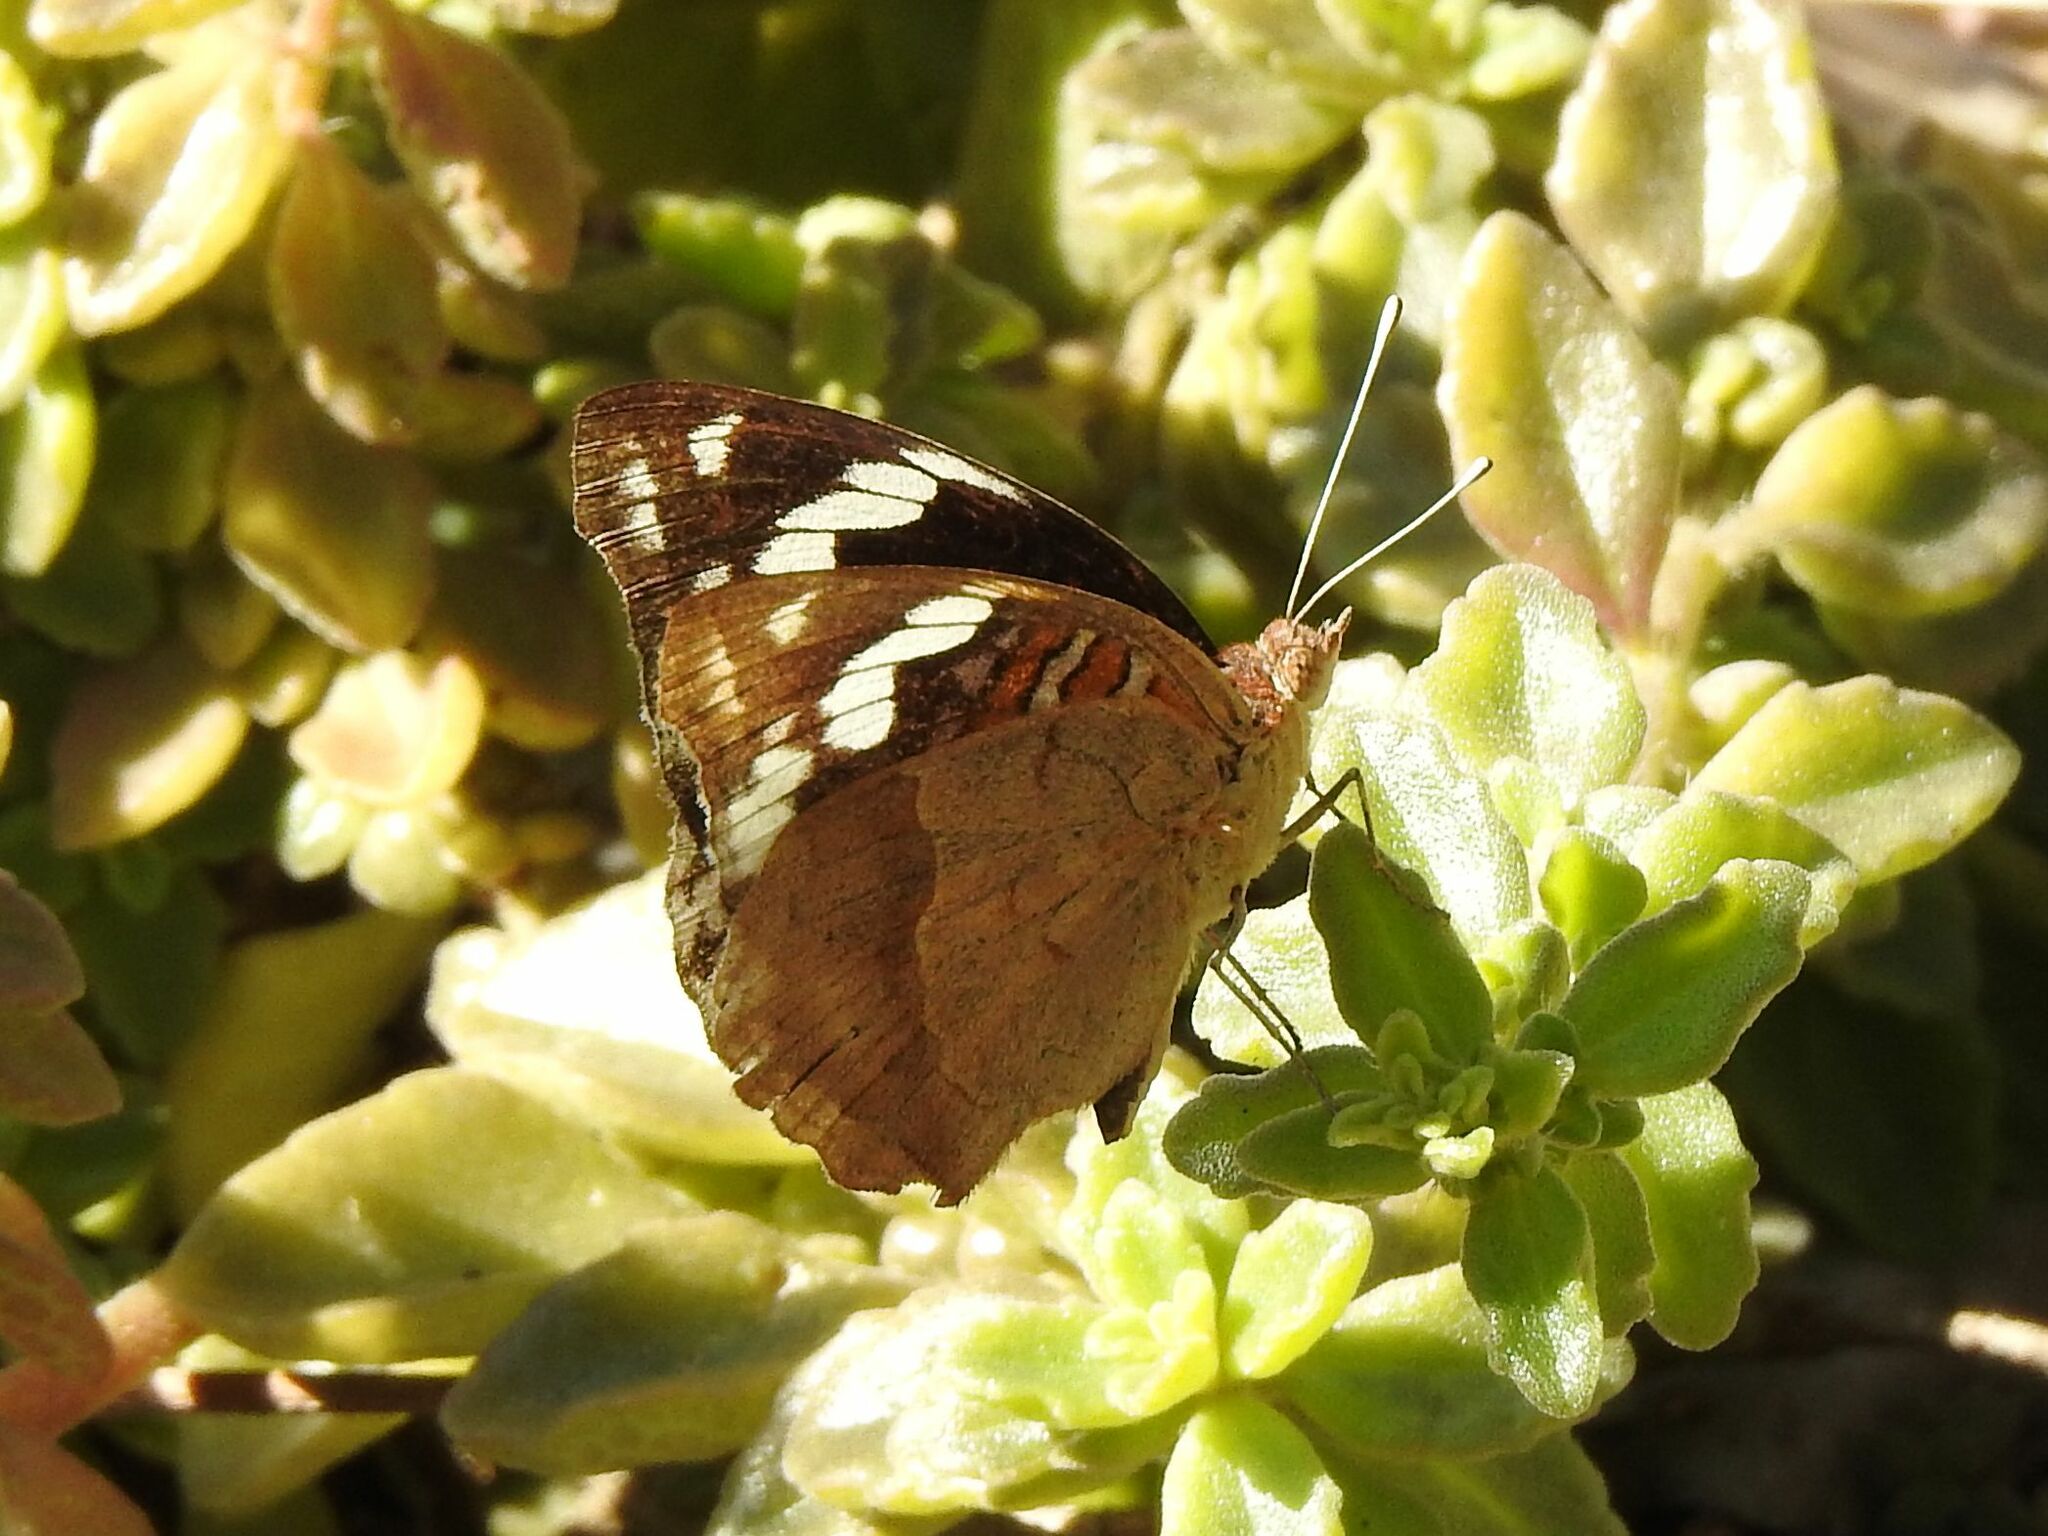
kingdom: Animalia
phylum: Arthropoda
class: Insecta
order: Lepidoptera
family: Nymphalidae
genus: Junonia
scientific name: Junonia oenone
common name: Dark blue pansy
